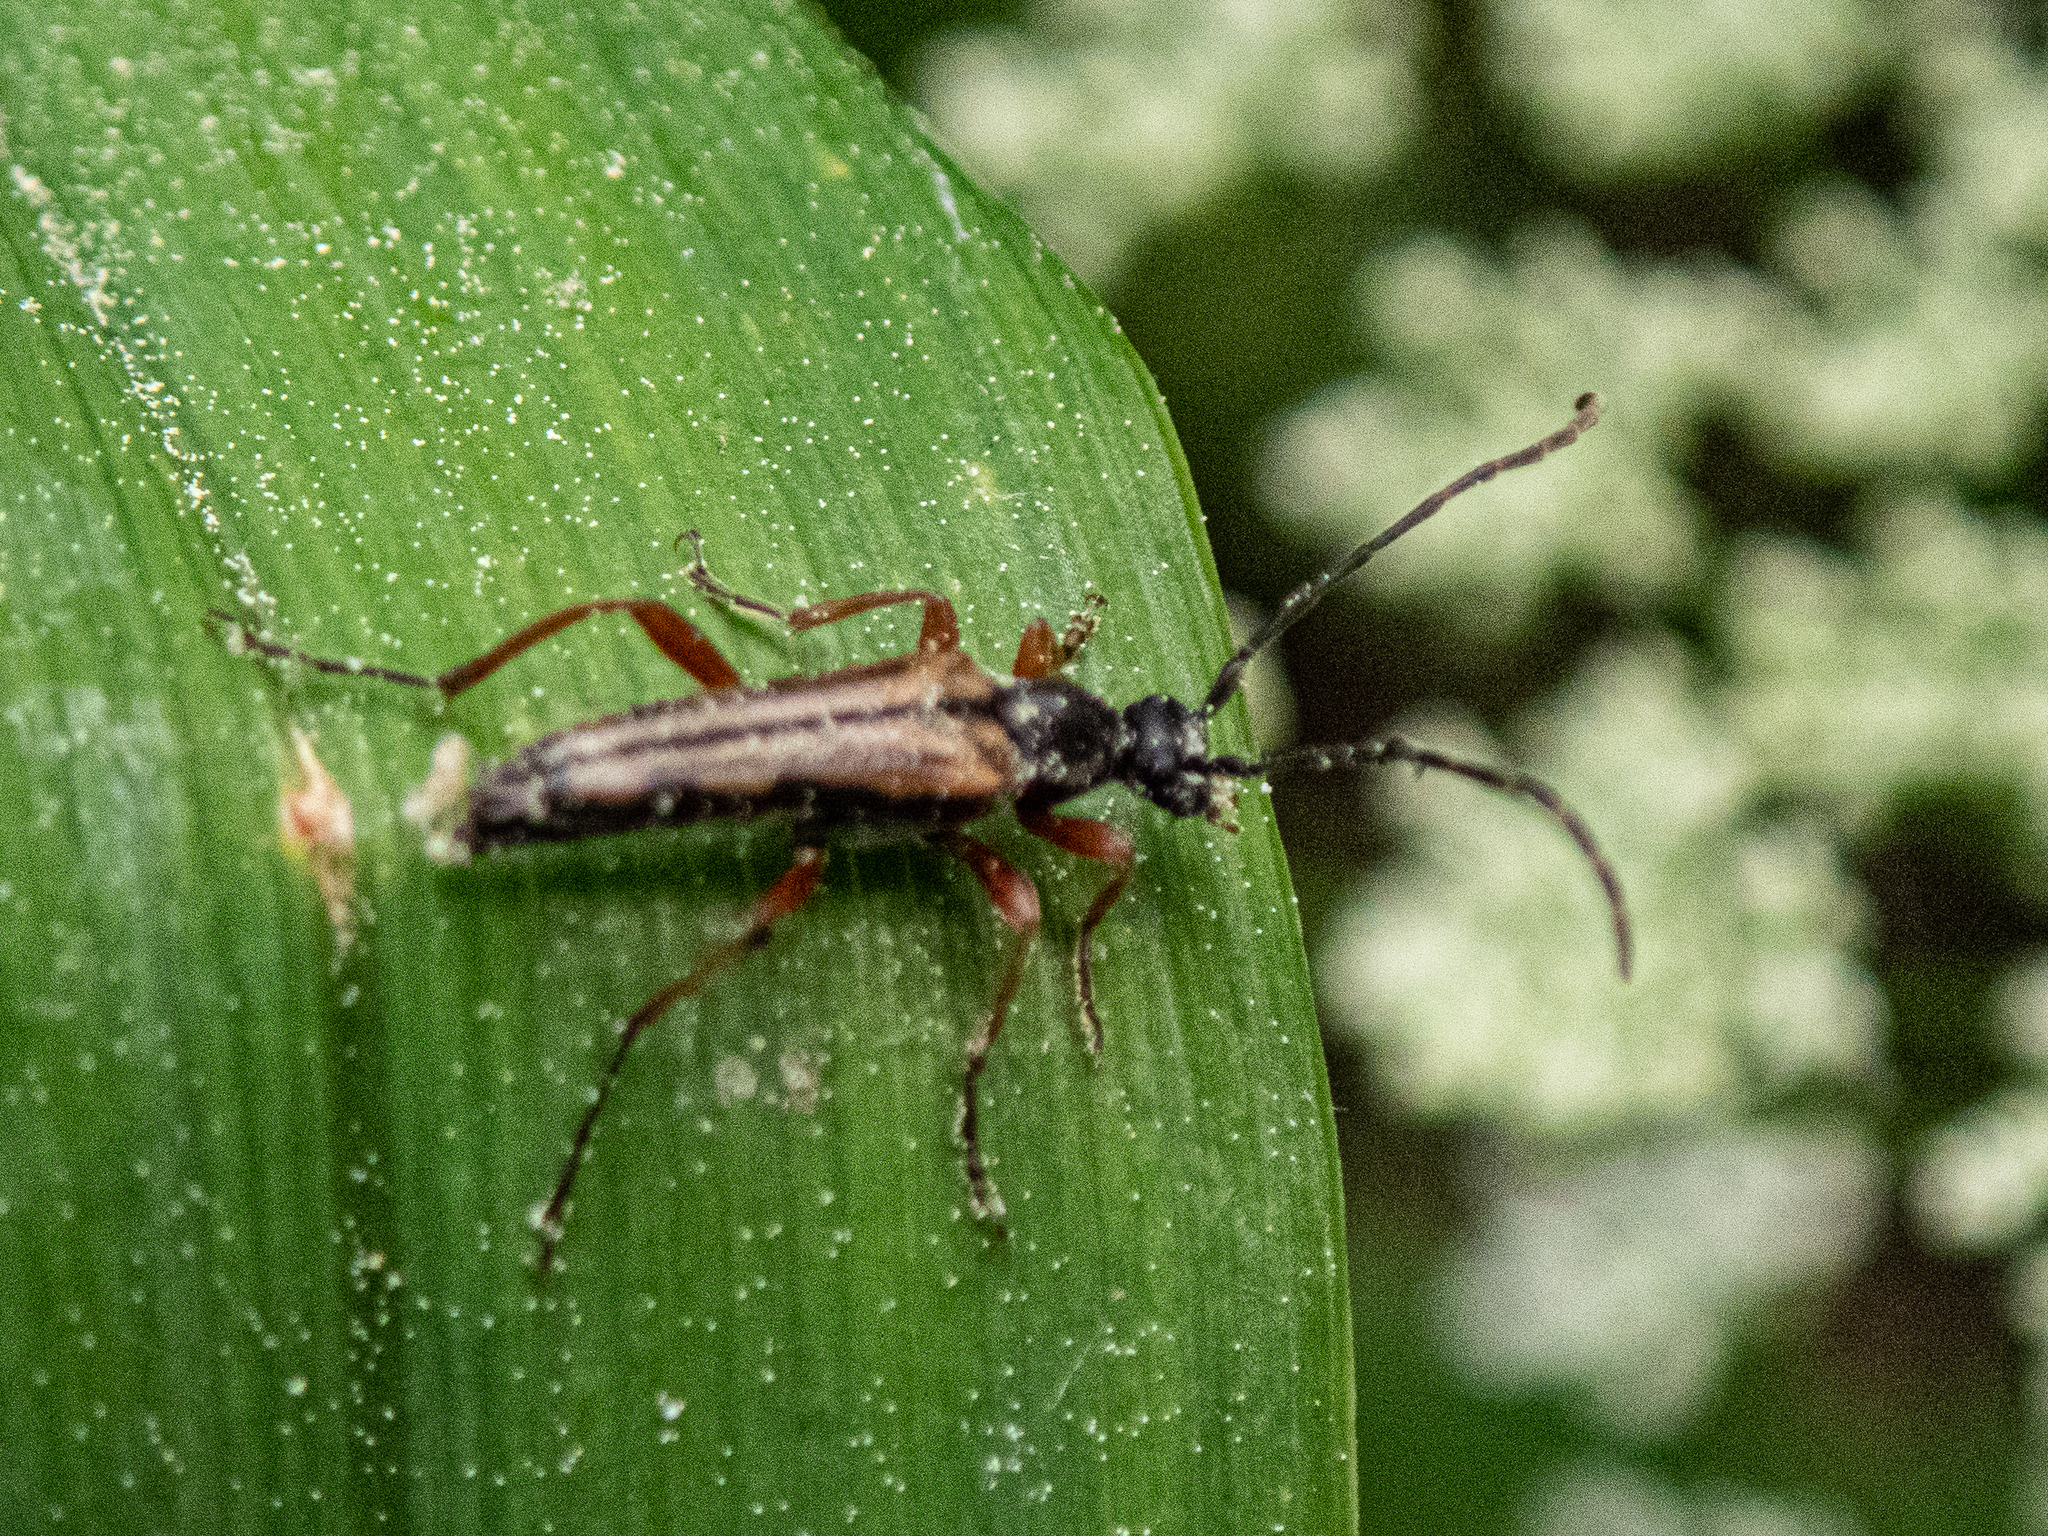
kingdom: Animalia
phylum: Arthropoda
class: Insecta
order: Coleoptera
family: Cerambycidae
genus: Analeptura
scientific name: Analeptura lineola
